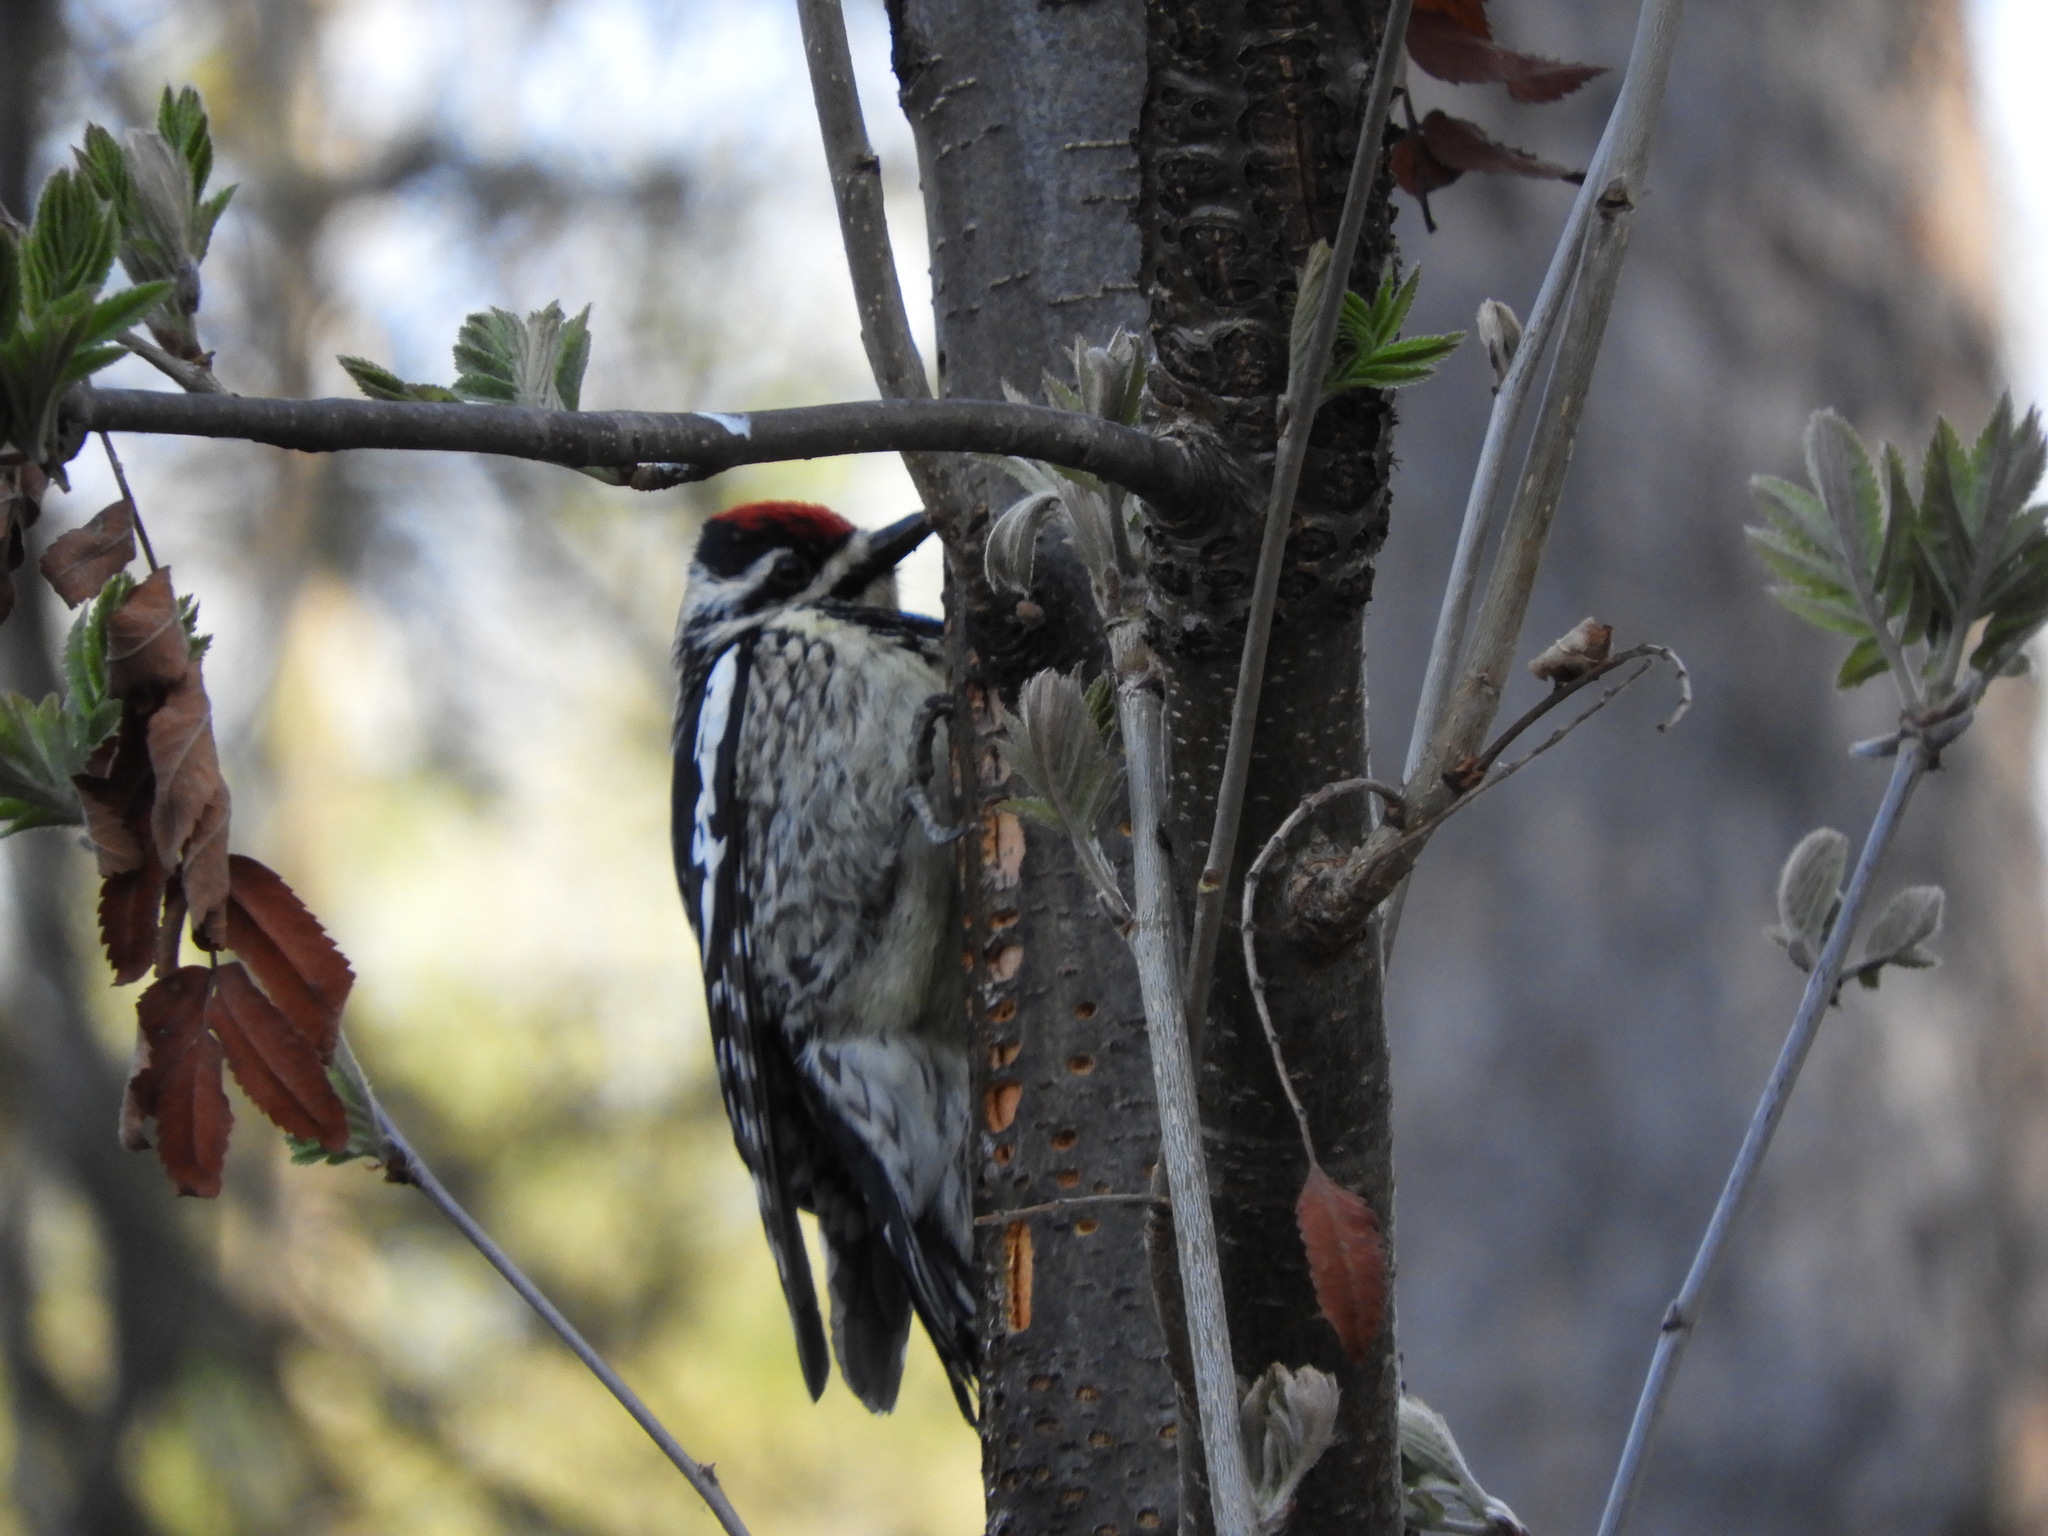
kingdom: Animalia
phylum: Chordata
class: Aves
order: Piciformes
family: Picidae
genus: Sphyrapicus
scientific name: Sphyrapicus varius
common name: Yellow-bellied sapsucker
